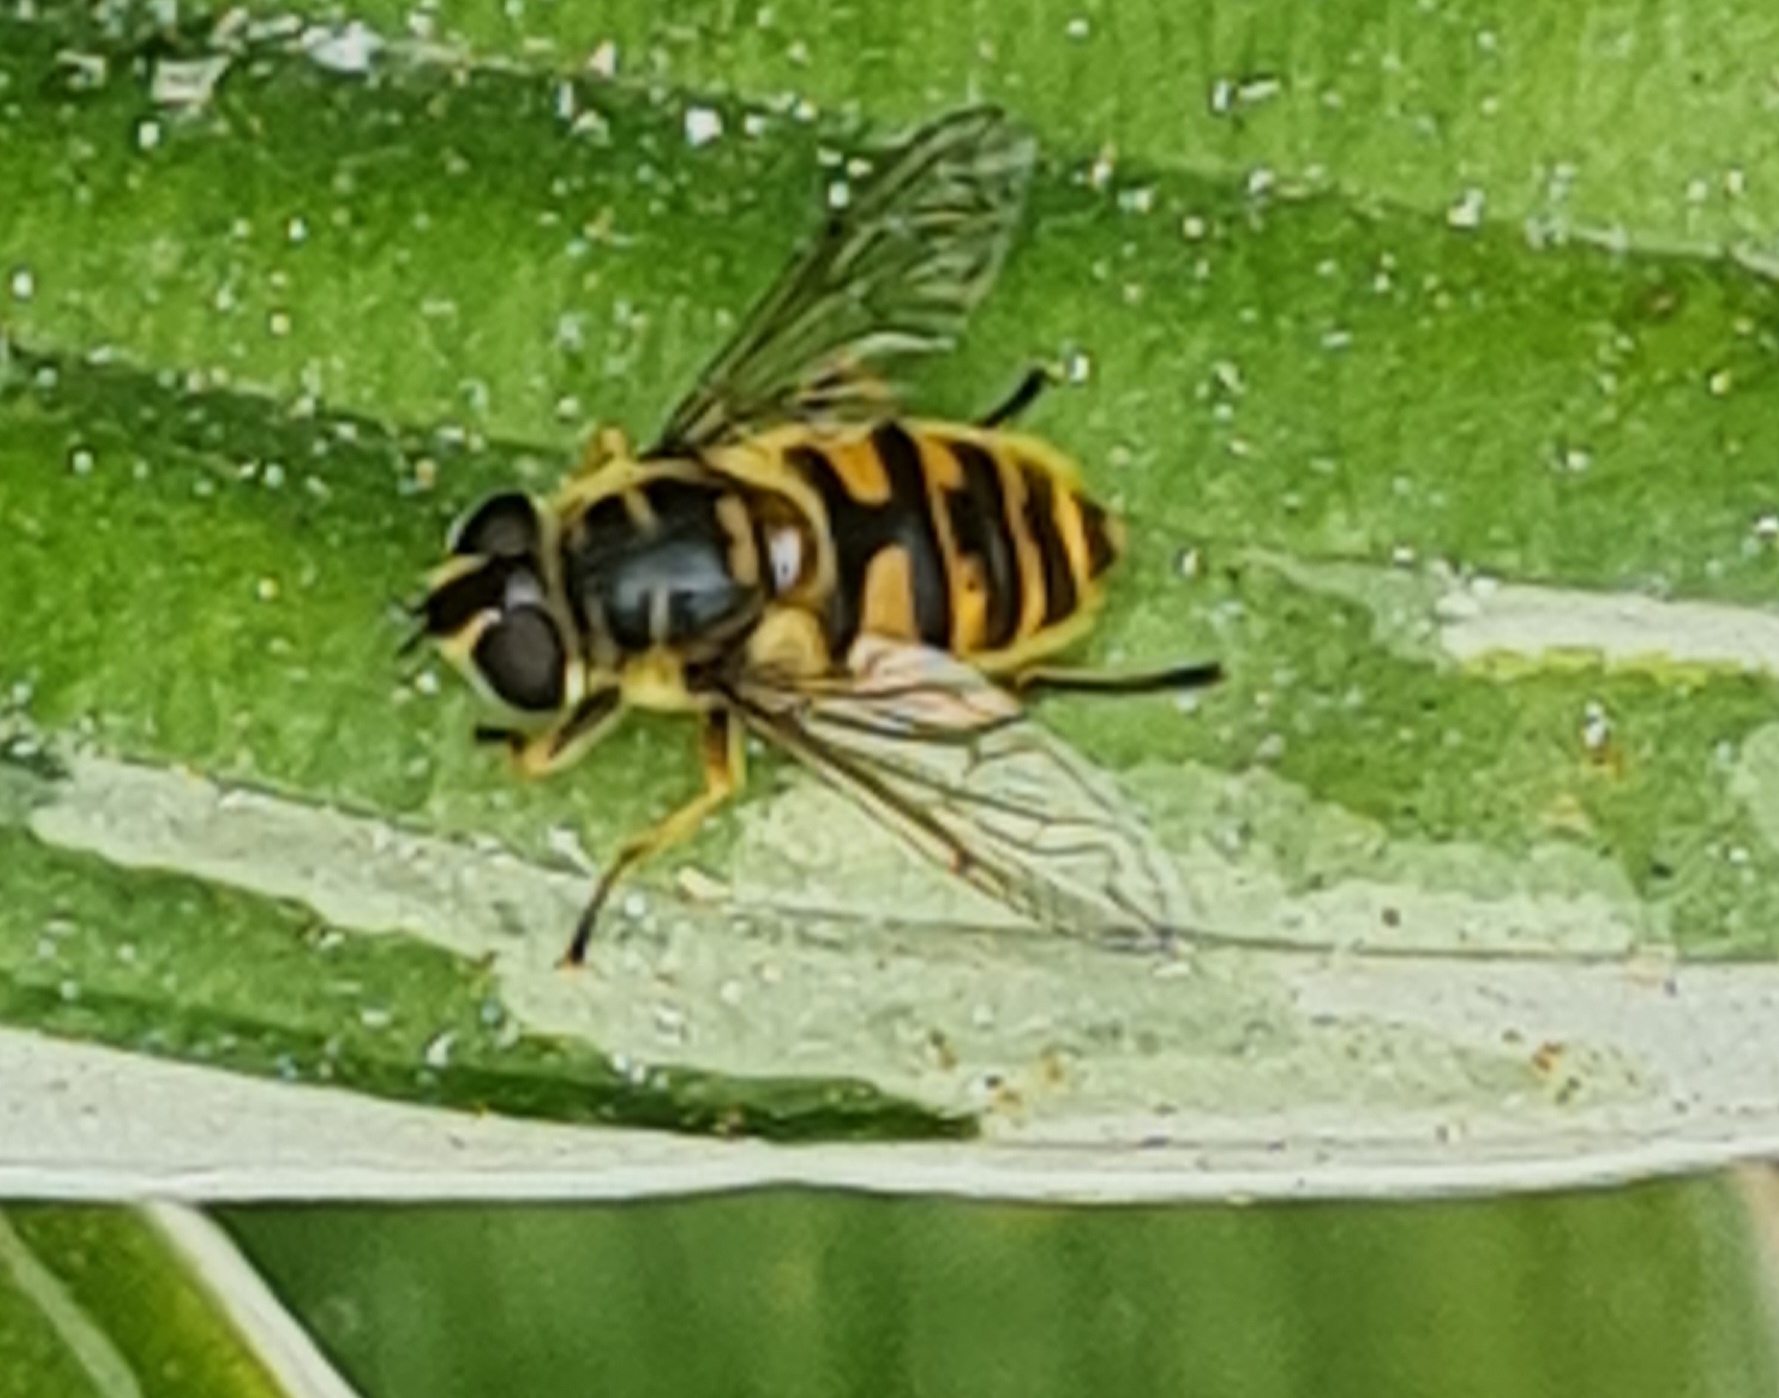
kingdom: Animalia
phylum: Arthropoda
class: Insecta
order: Diptera
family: Syrphidae
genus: Myathropa
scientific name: Myathropa florea
